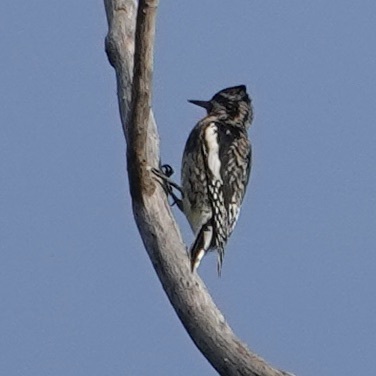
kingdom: Animalia
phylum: Chordata
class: Aves
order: Piciformes
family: Picidae
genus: Sphyrapicus
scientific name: Sphyrapicus varius
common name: Yellow-bellied sapsucker
